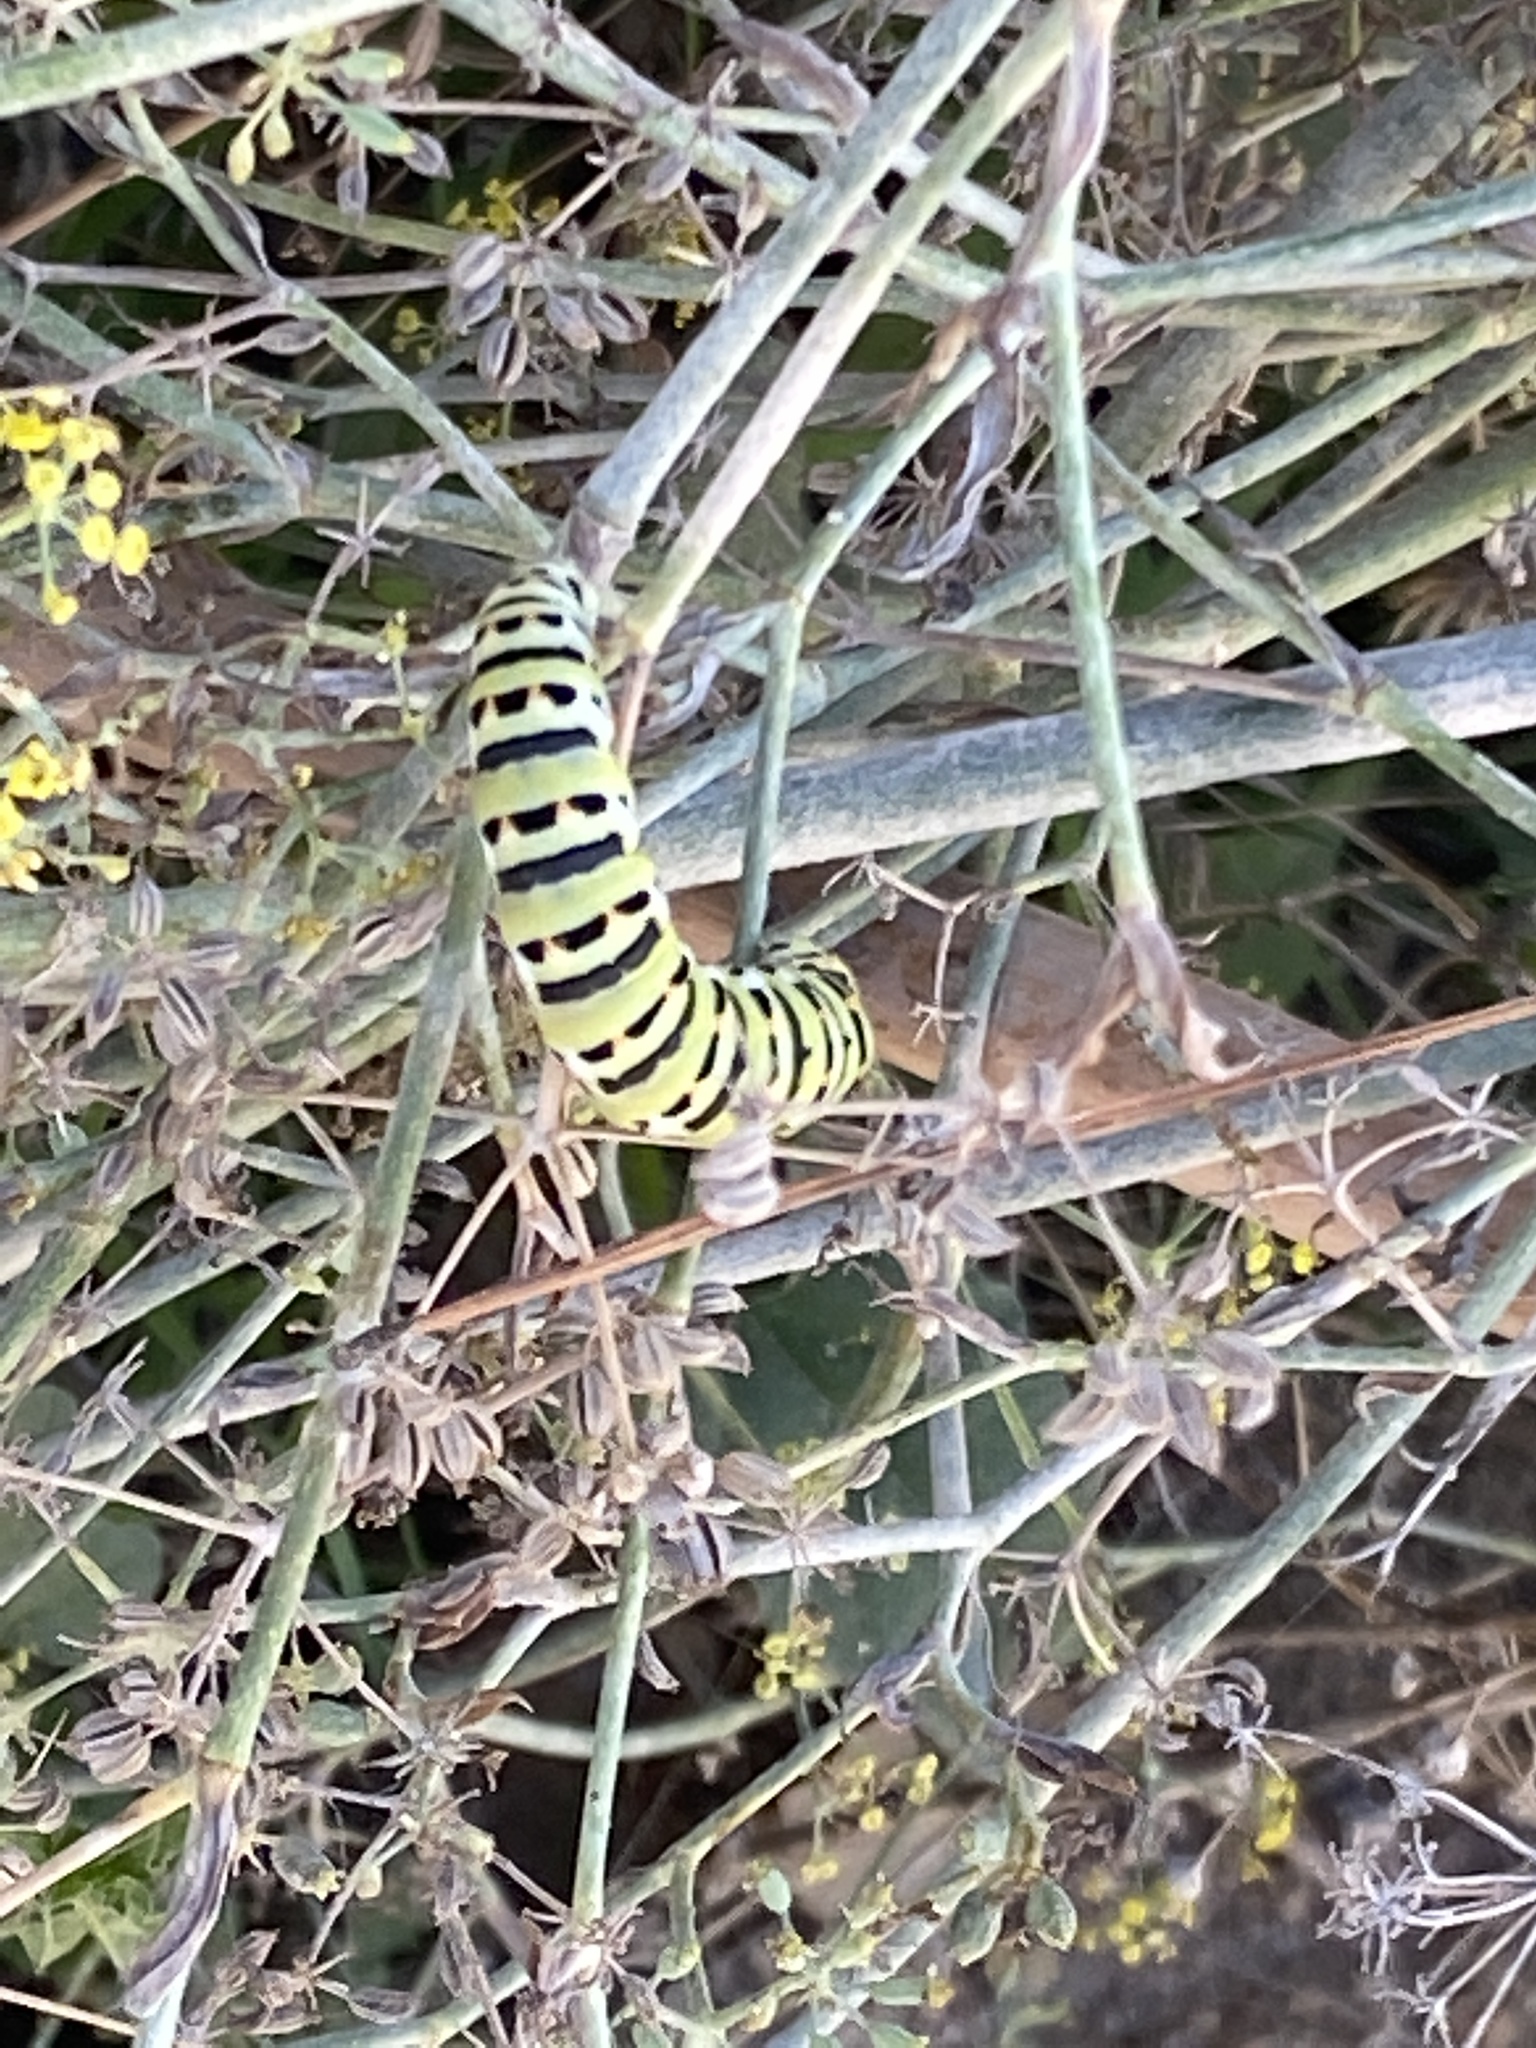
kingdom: Animalia
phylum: Arthropoda
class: Insecta
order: Lepidoptera
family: Papilionidae
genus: Papilio
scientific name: Papilio machaon
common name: Swallowtail
